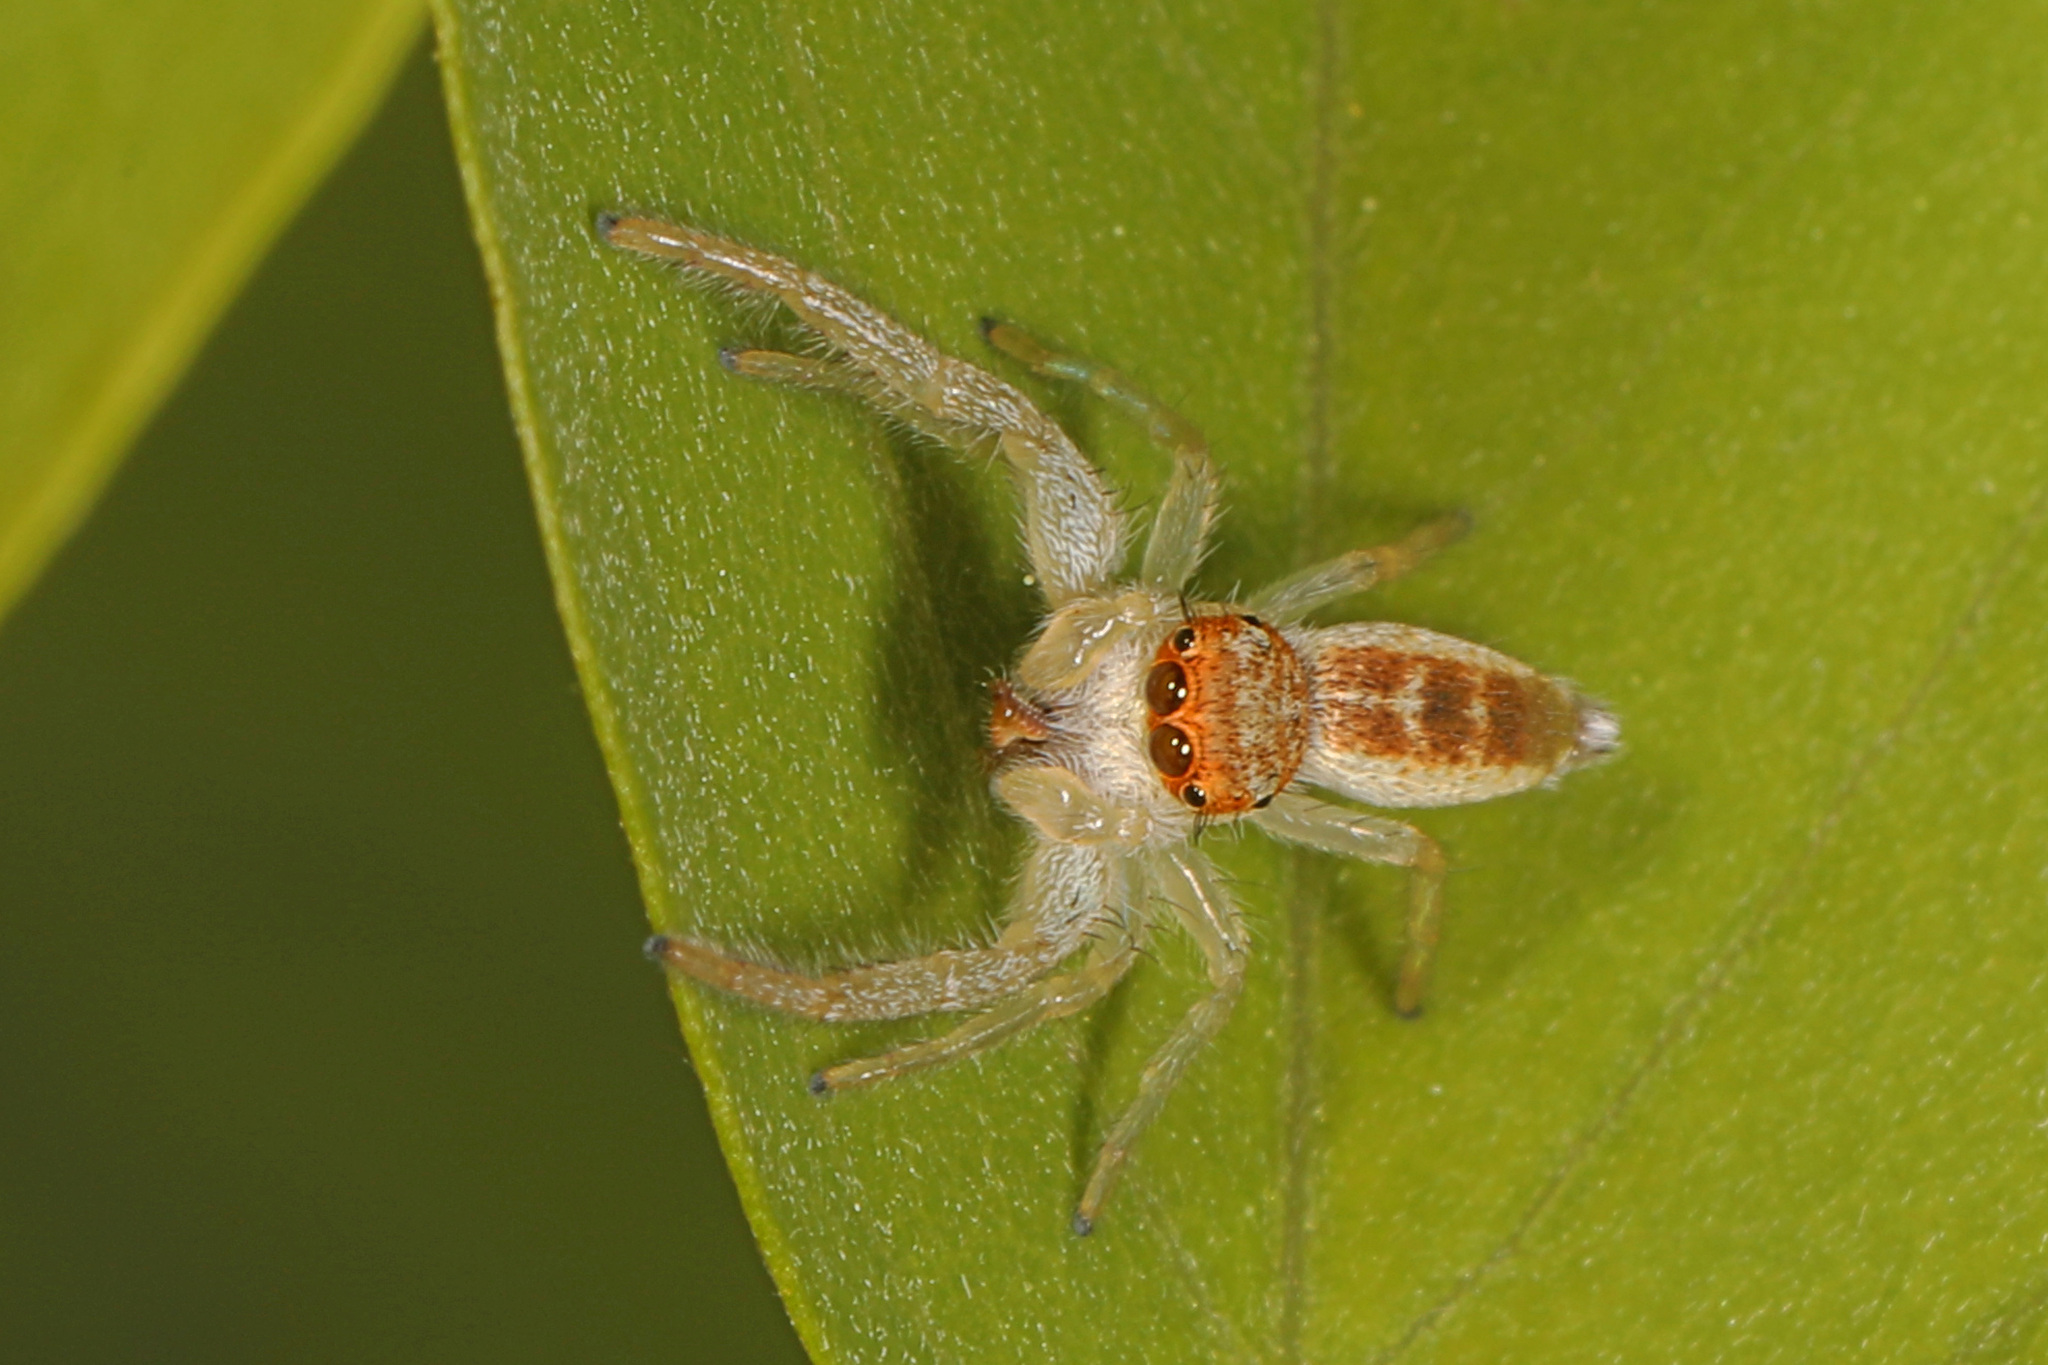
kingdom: Animalia
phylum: Arthropoda
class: Arachnida
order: Araneae
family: Salticidae
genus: Hentzia
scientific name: Hentzia mitrata
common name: White-jawed jumping spider
